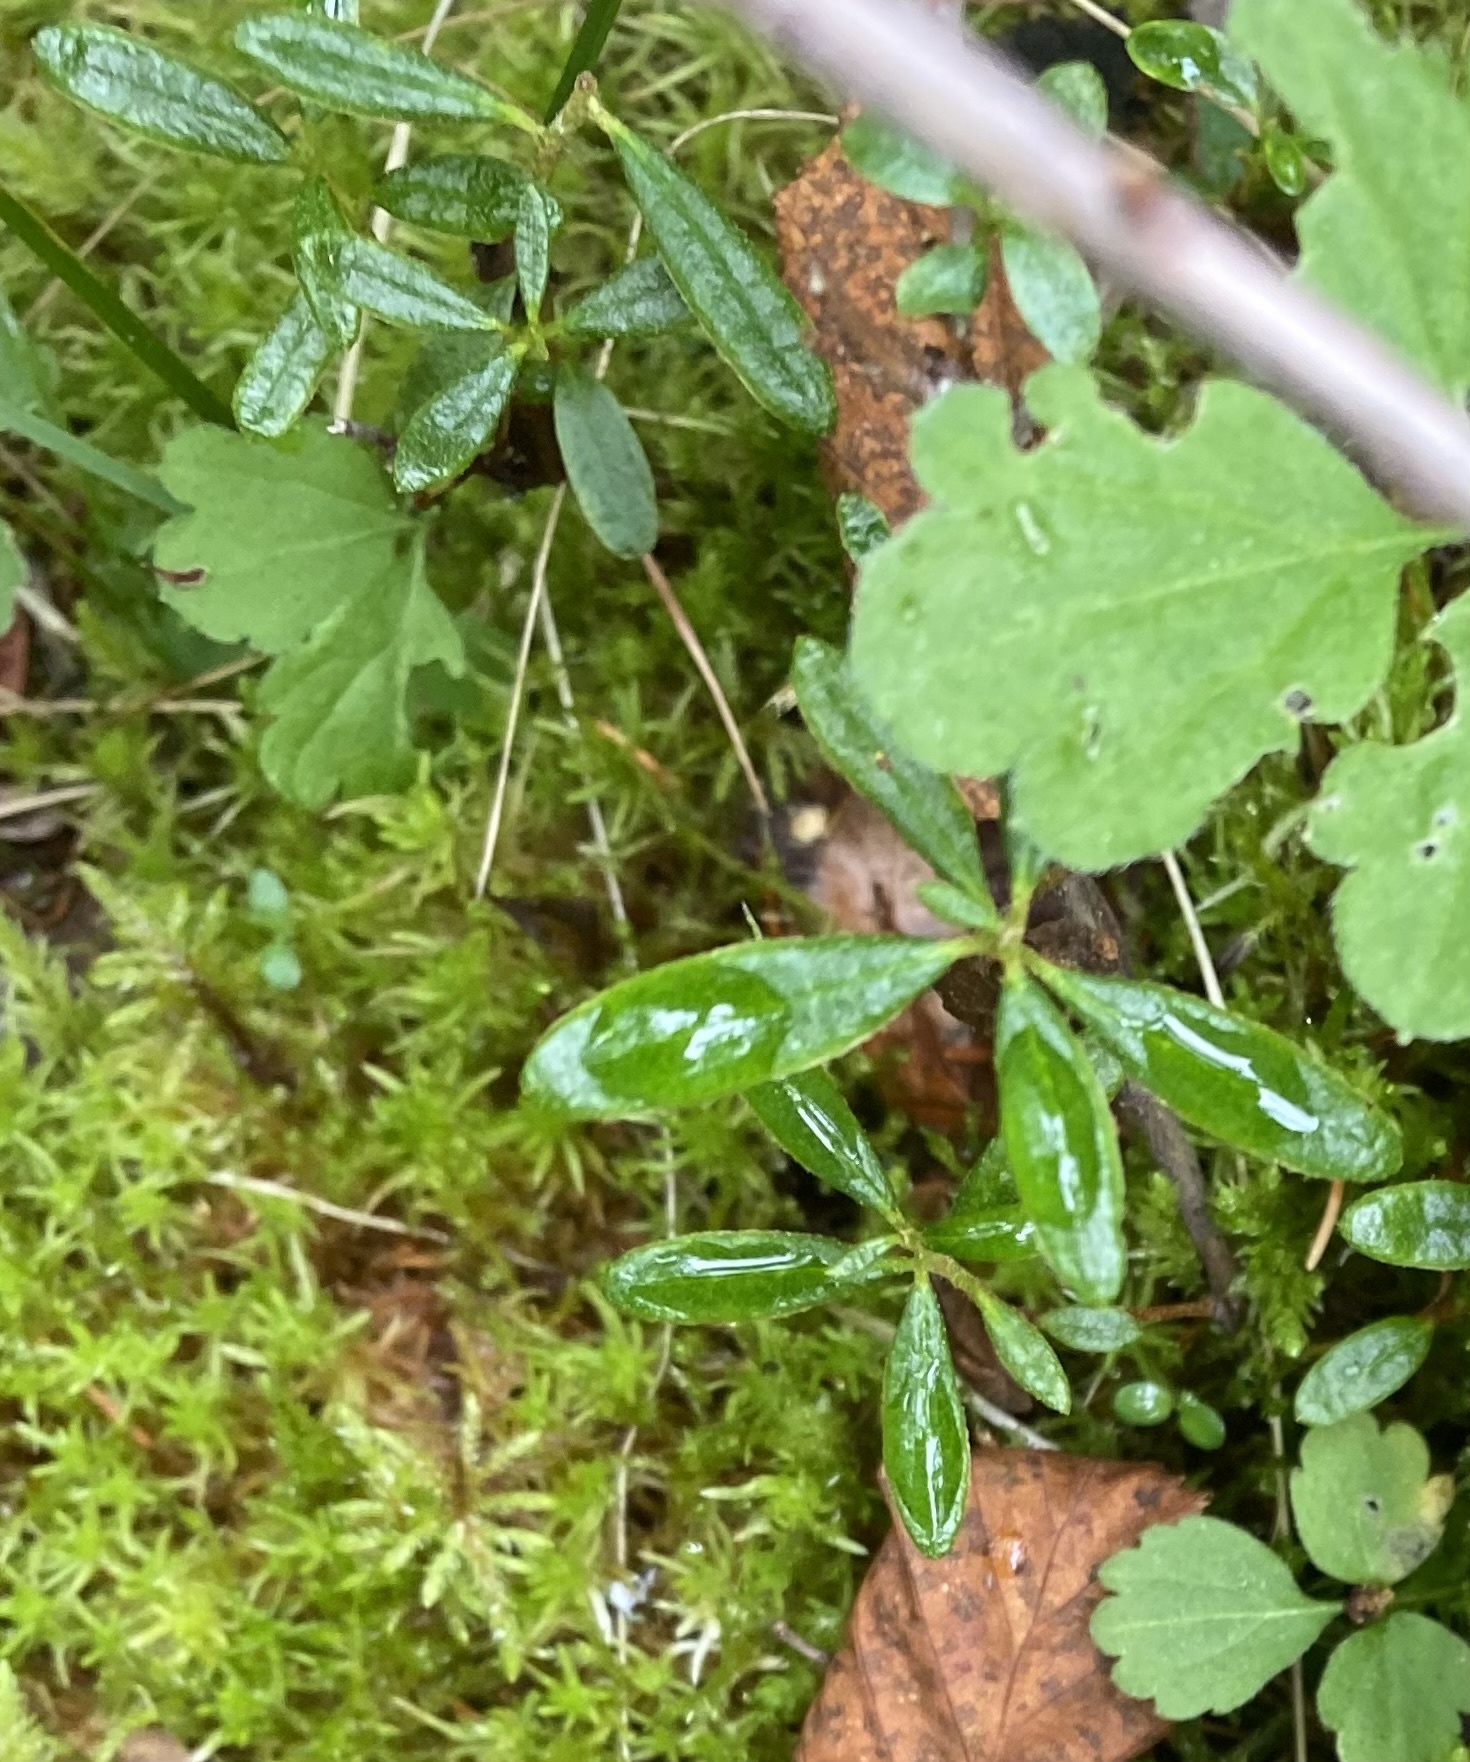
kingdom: Plantae
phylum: Tracheophyta
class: Magnoliopsida
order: Ericales
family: Ericaceae
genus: Rhododendron
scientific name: Rhododendron tomentosum
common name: Marsh labrador tea
